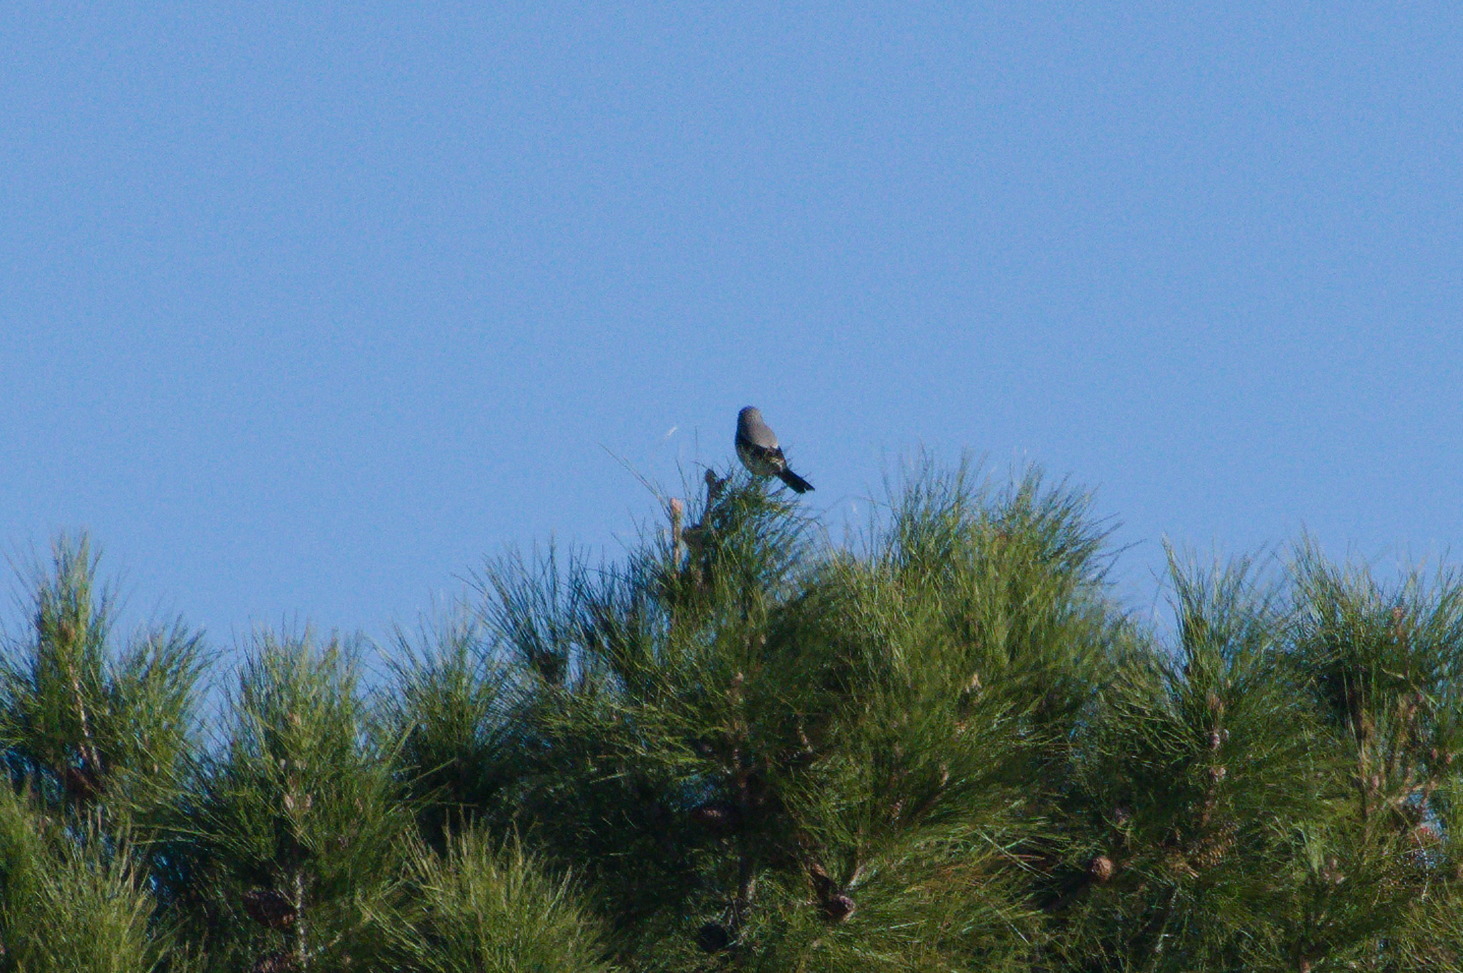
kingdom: Animalia
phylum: Chordata
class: Aves
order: Passeriformes
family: Laniidae
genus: Lanius
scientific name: Lanius ludovicianus
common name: Loggerhead shrike
